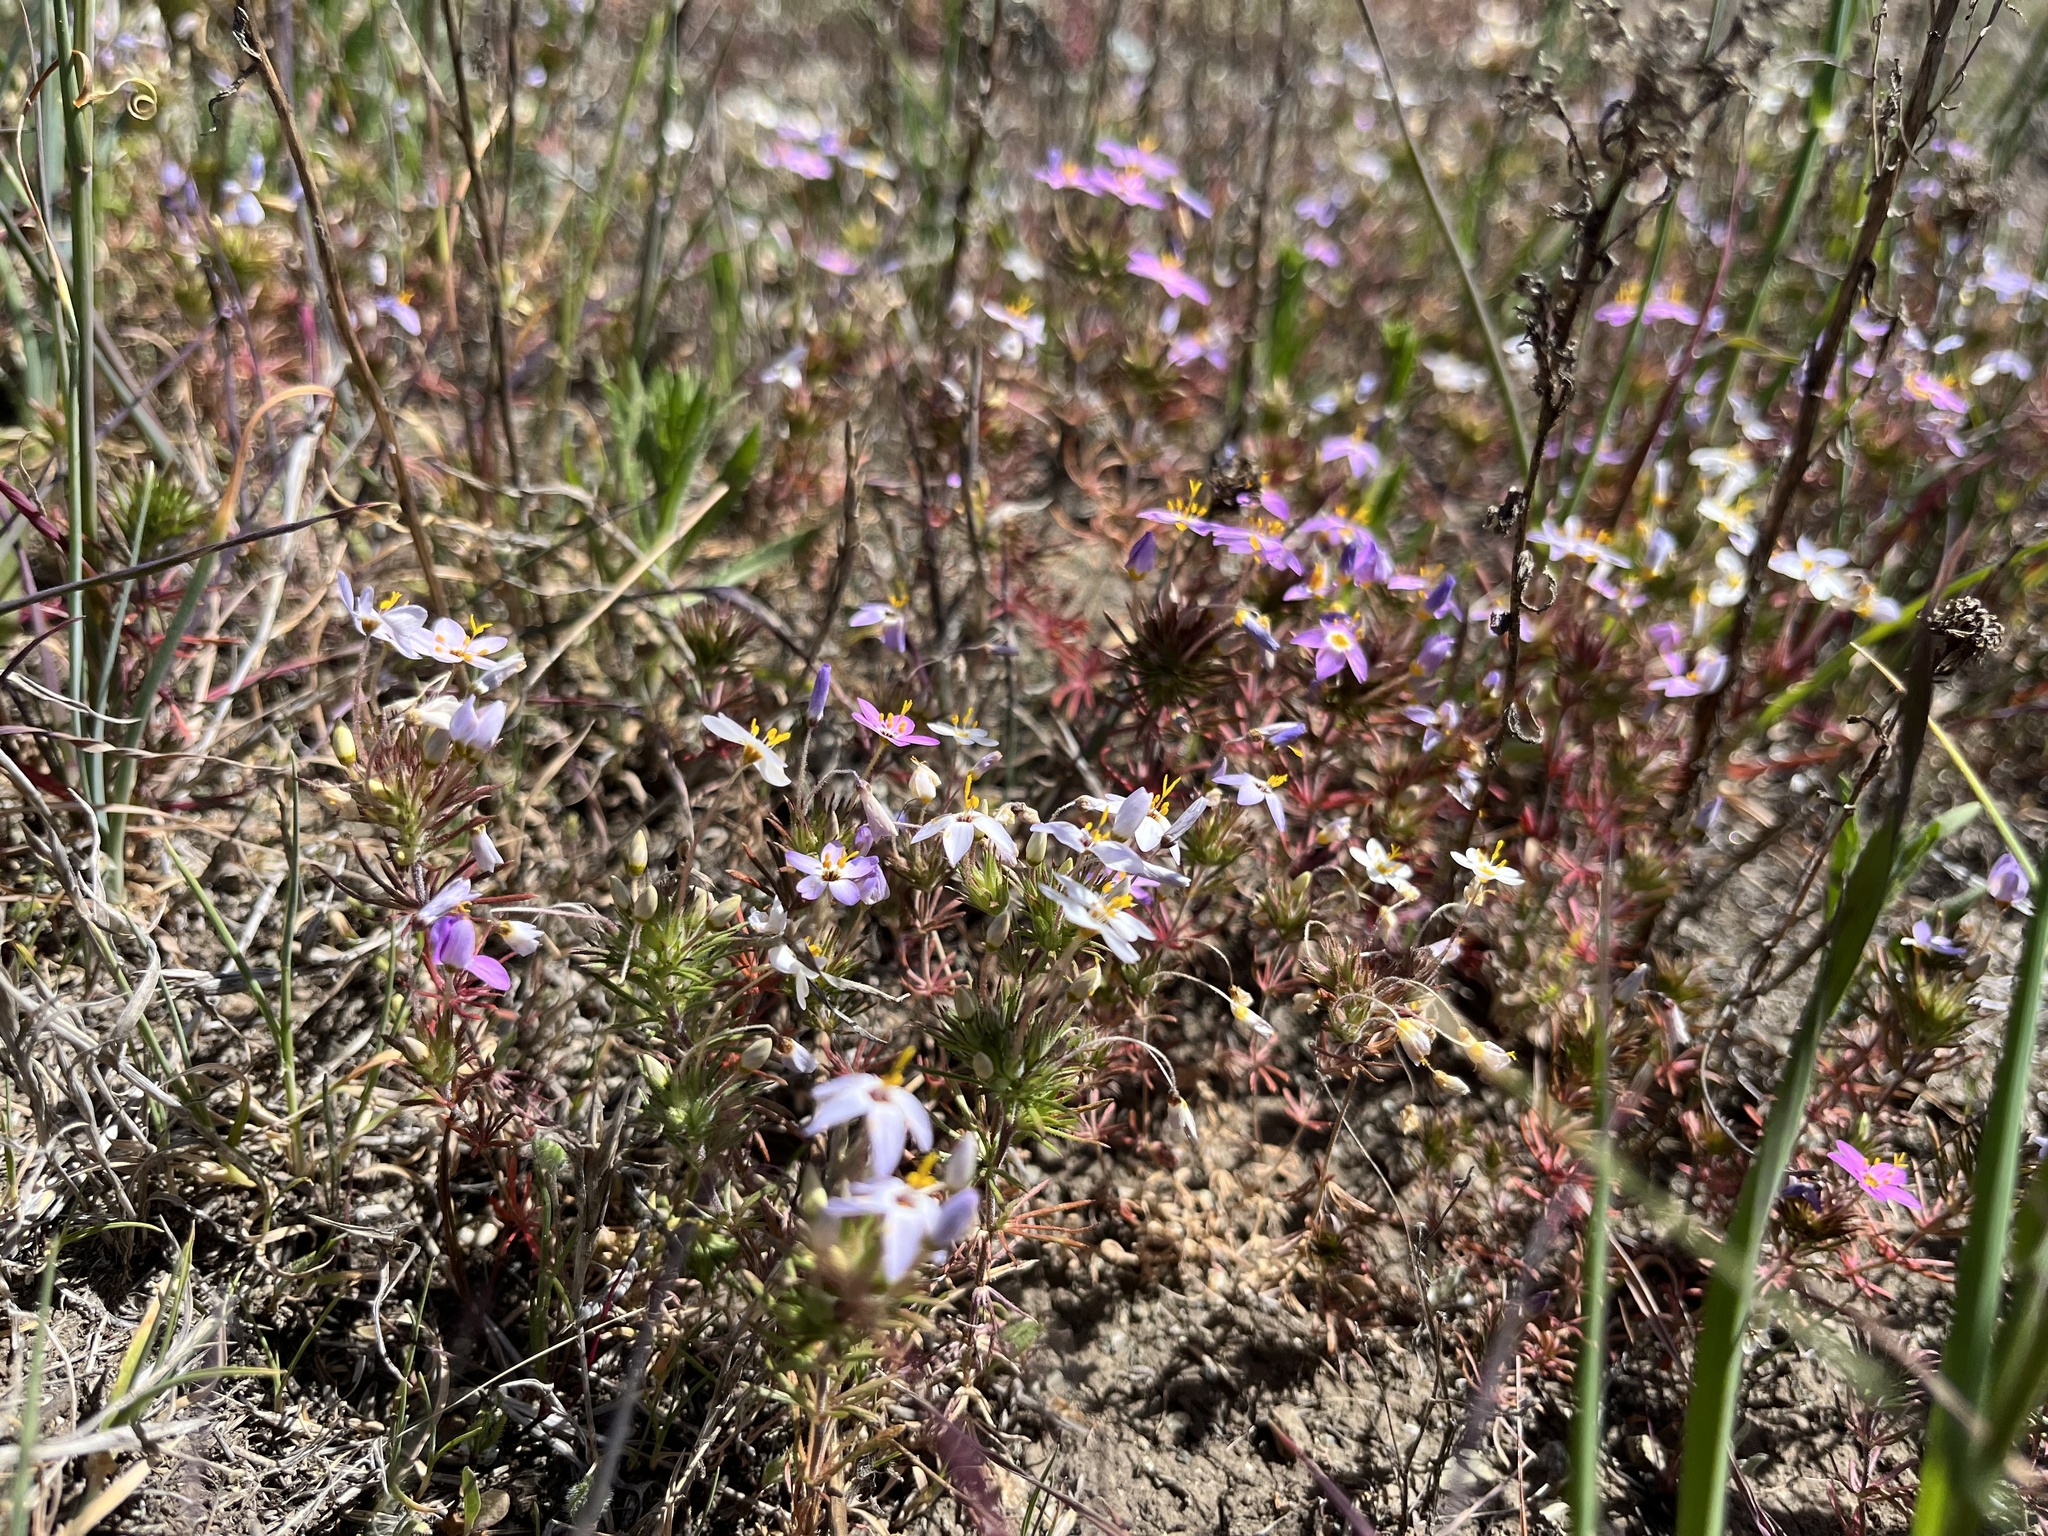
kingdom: Plantae
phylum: Tracheophyta
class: Magnoliopsida
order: Ericales
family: Polemoniaceae
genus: Leptosiphon
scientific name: Leptosiphon parviflorus
